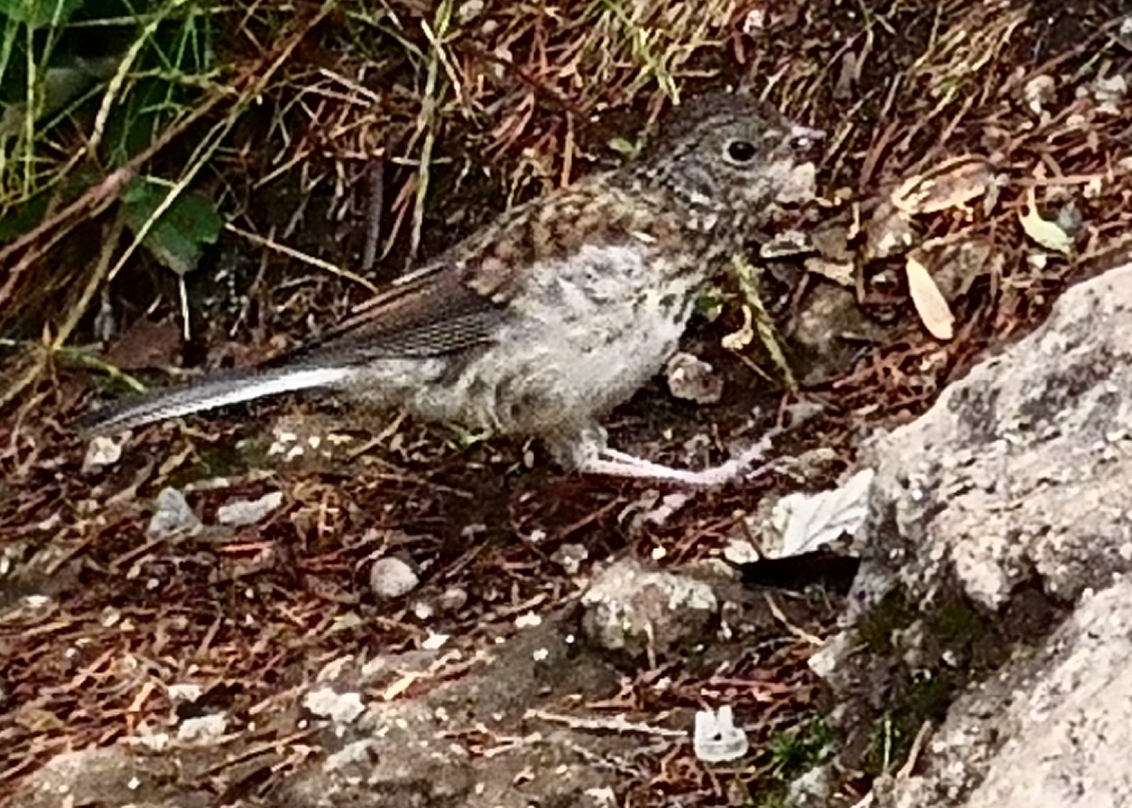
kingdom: Animalia
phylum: Chordata
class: Aves
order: Passeriformes
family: Passerellidae
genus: Pipilo
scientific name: Pipilo maculatus
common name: Spotted towhee
